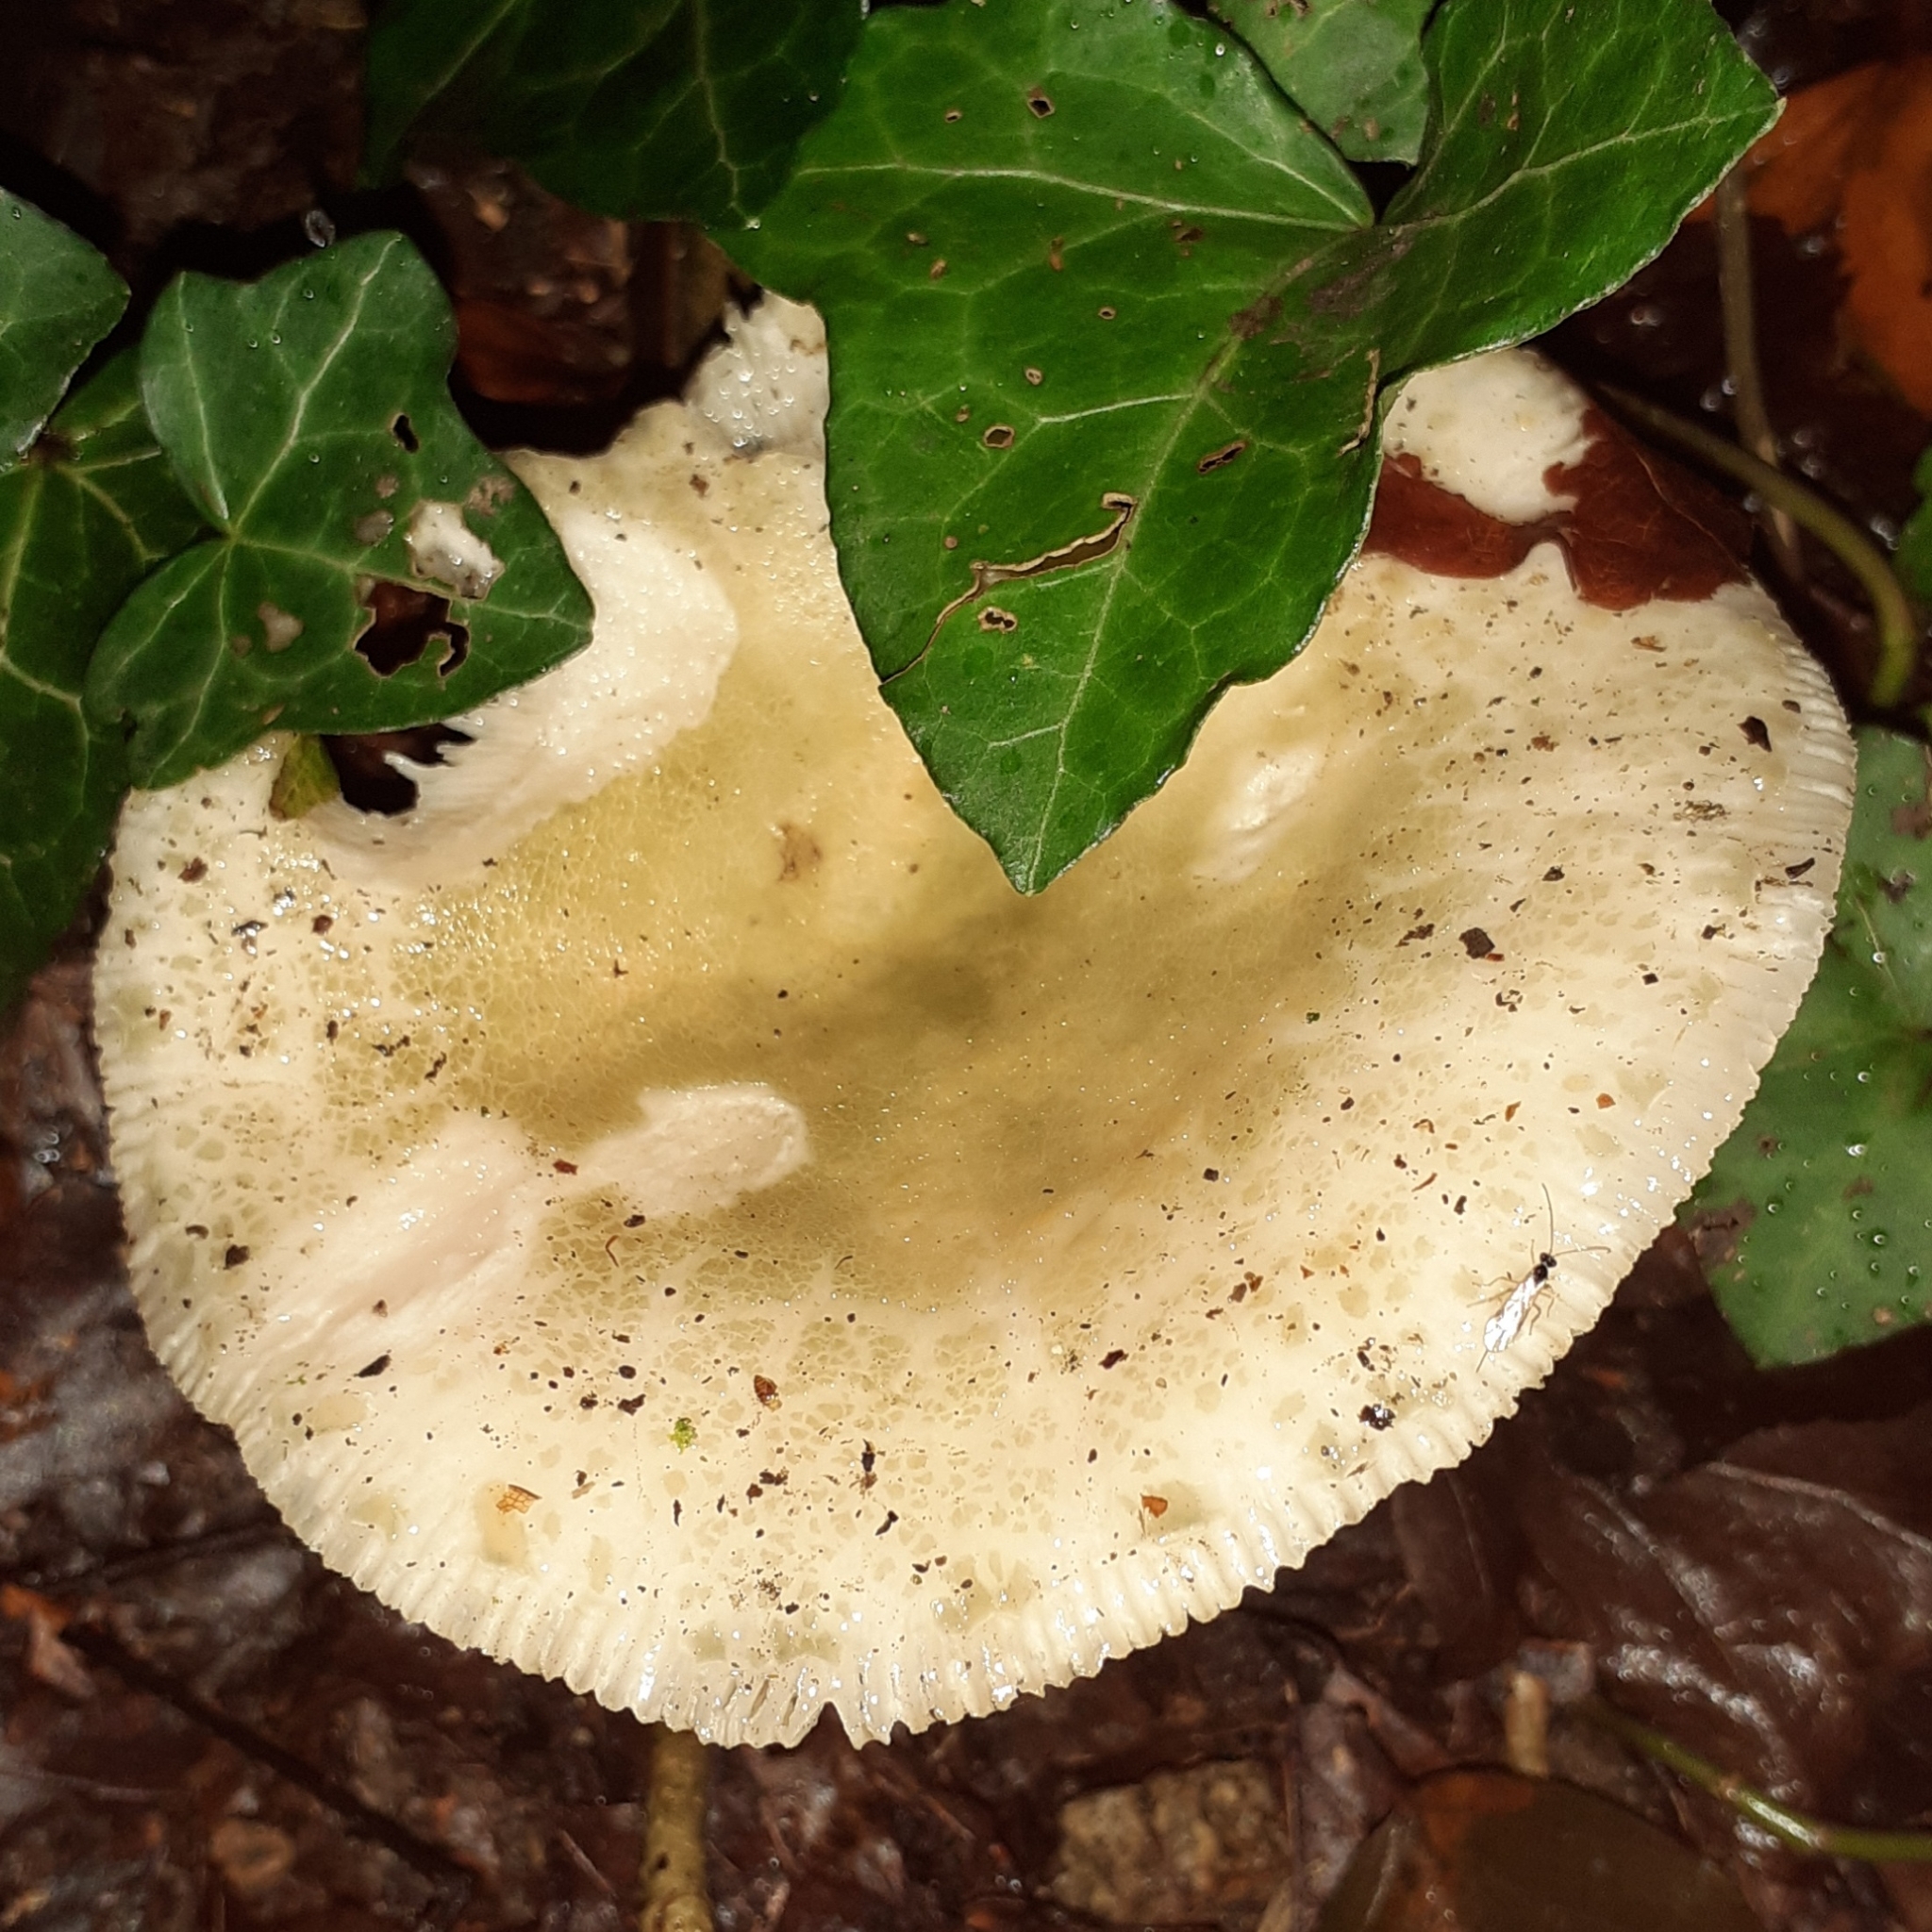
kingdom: Fungi
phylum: Basidiomycota
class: Agaricomycetes
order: Russulales
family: Russulaceae
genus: Russula
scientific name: Russula virescens
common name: Greencracked brittlegill
